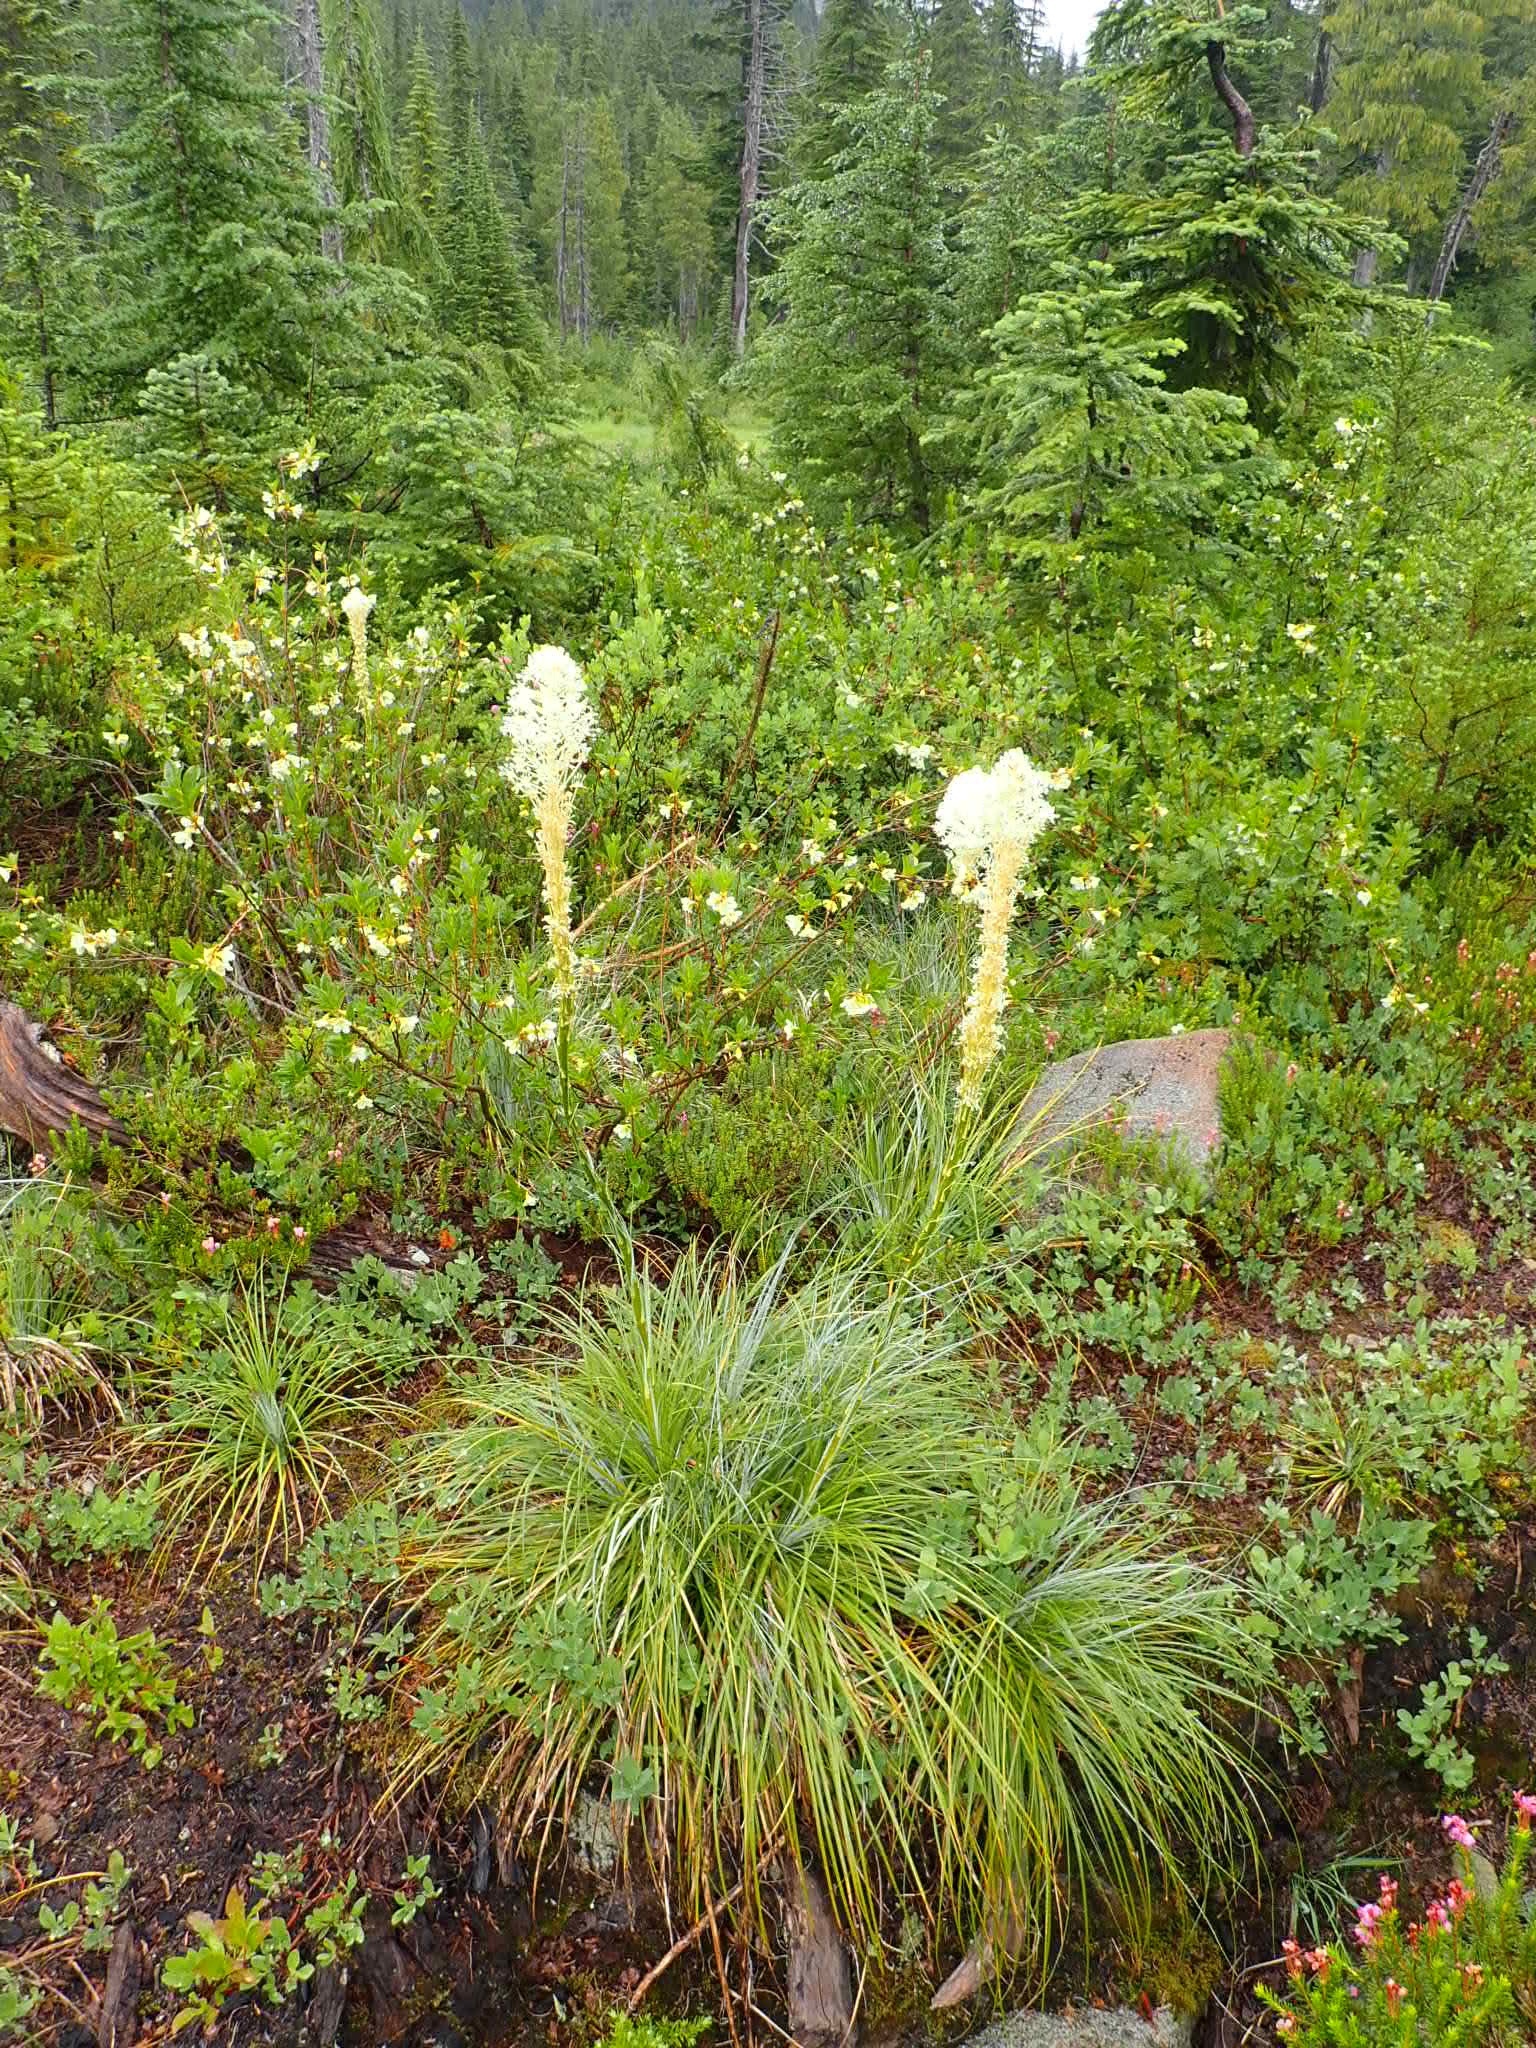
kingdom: Plantae
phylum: Tracheophyta
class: Liliopsida
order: Liliales
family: Melanthiaceae
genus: Xerophyllum
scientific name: Xerophyllum tenax
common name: Bear-grass
